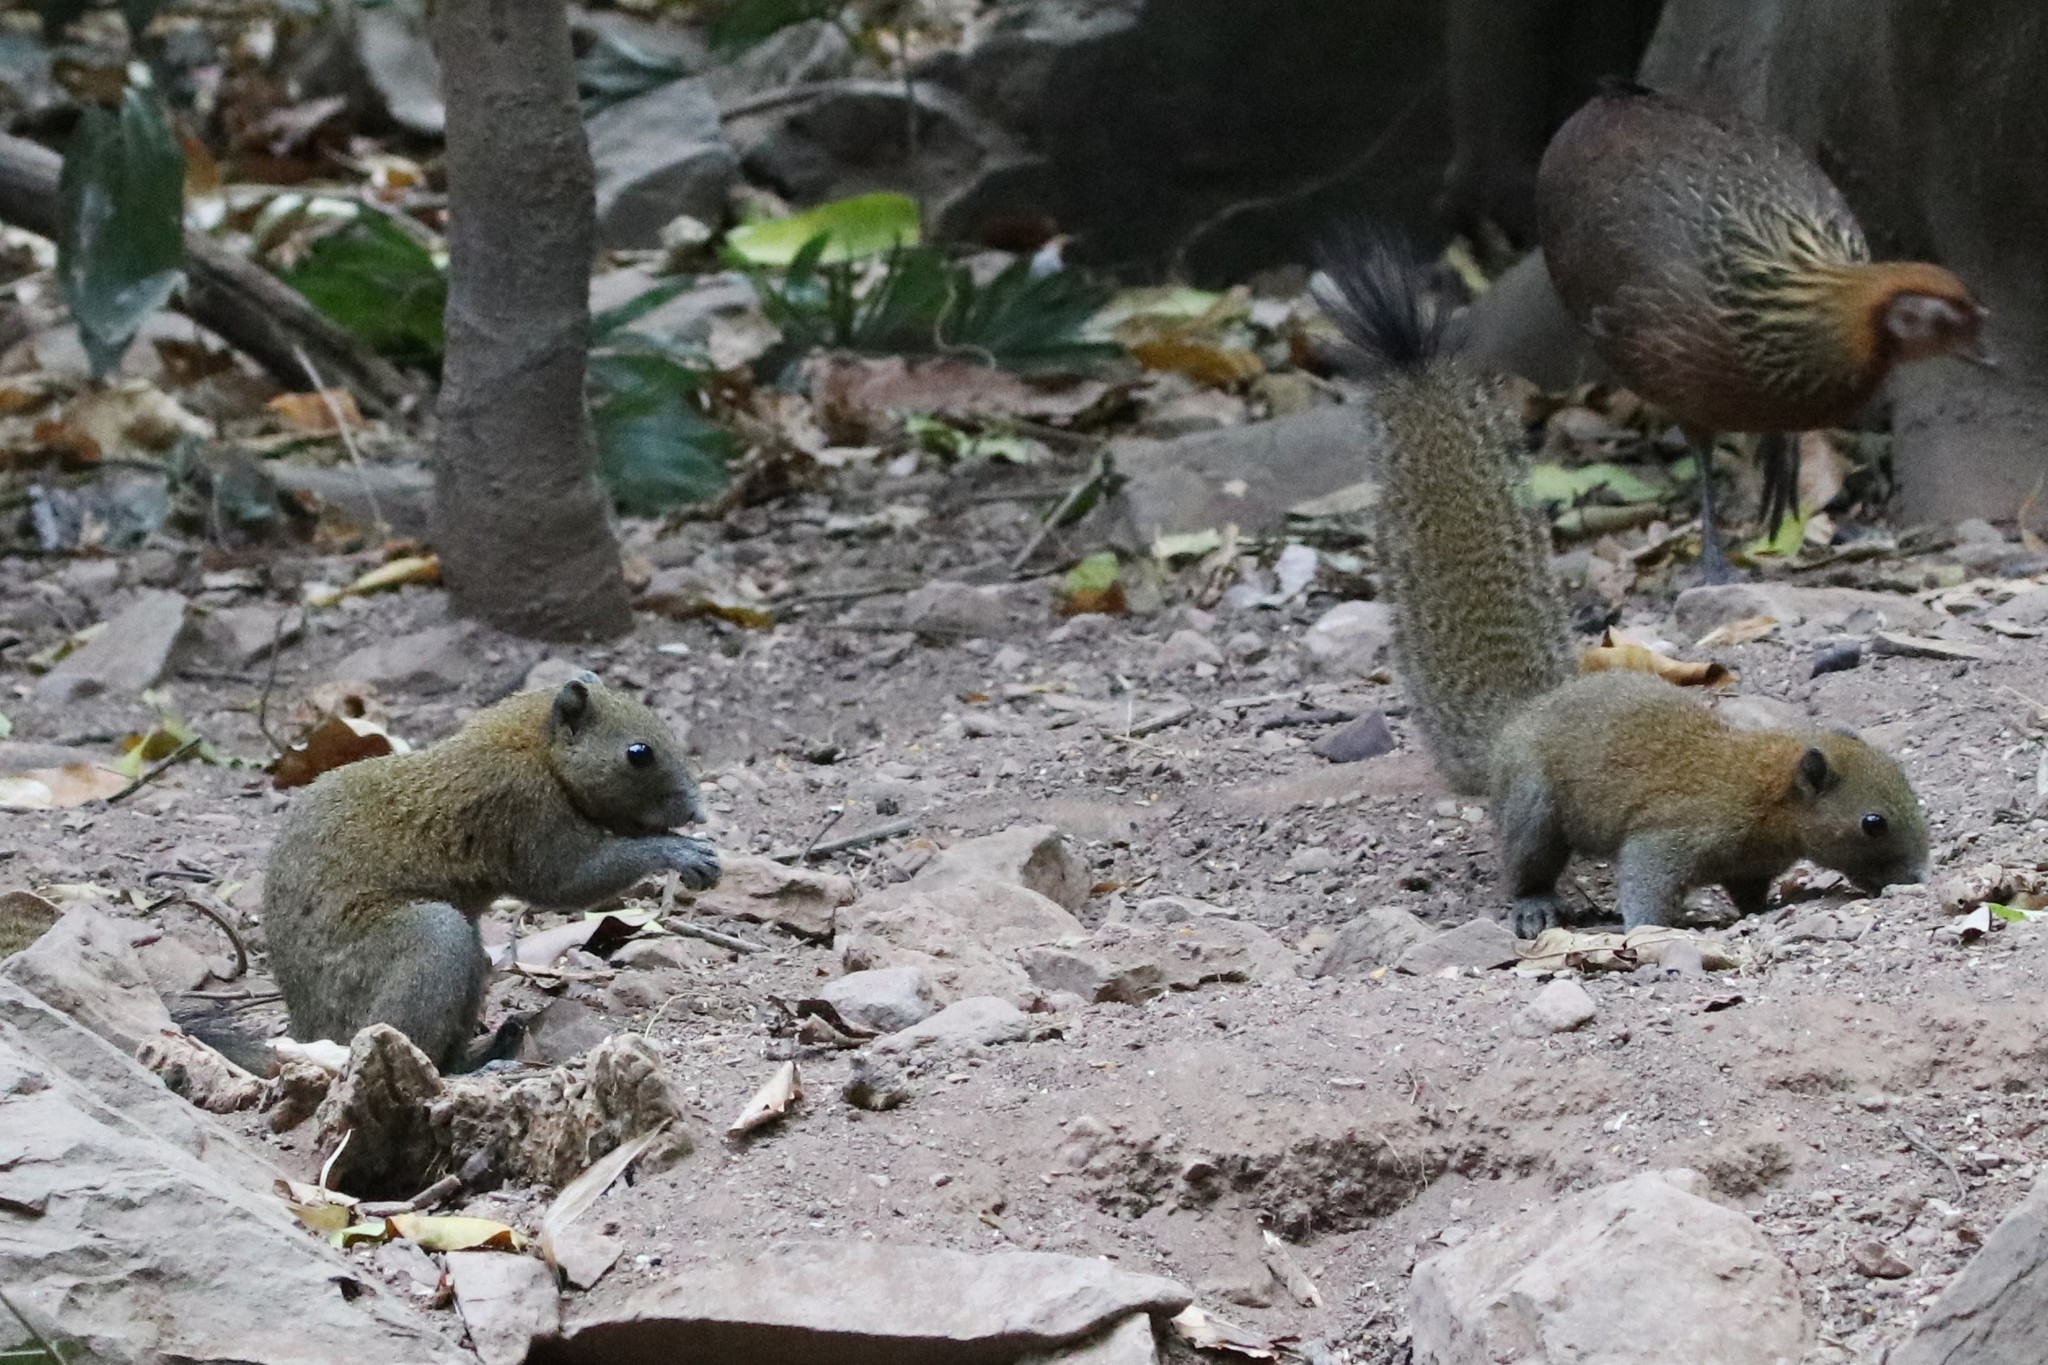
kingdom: Animalia
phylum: Chordata
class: Mammalia
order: Rodentia
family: Sciuridae
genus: Callosciurus
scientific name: Callosciurus caniceps
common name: Gray-bellied squirrel
